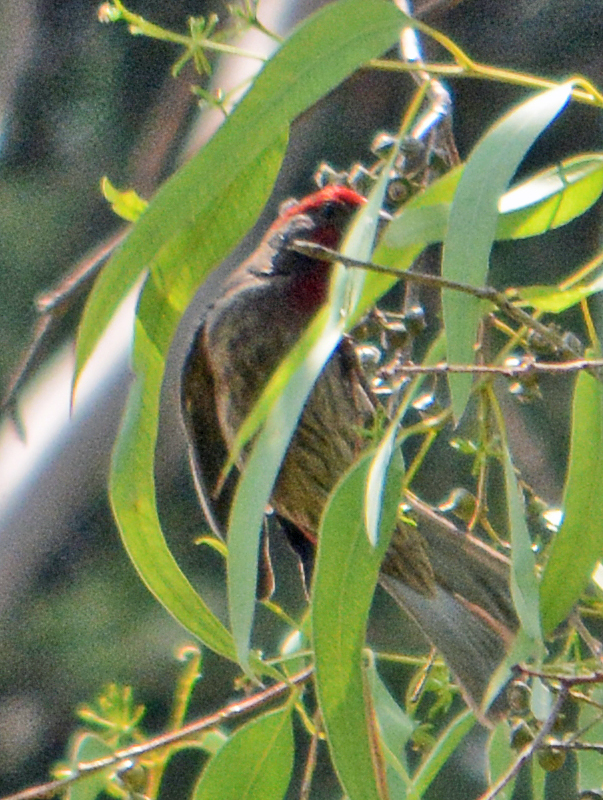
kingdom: Animalia
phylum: Chordata
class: Aves
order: Passeriformes
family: Fringillidae
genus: Haemorhous
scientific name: Haemorhous mexicanus
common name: House finch
